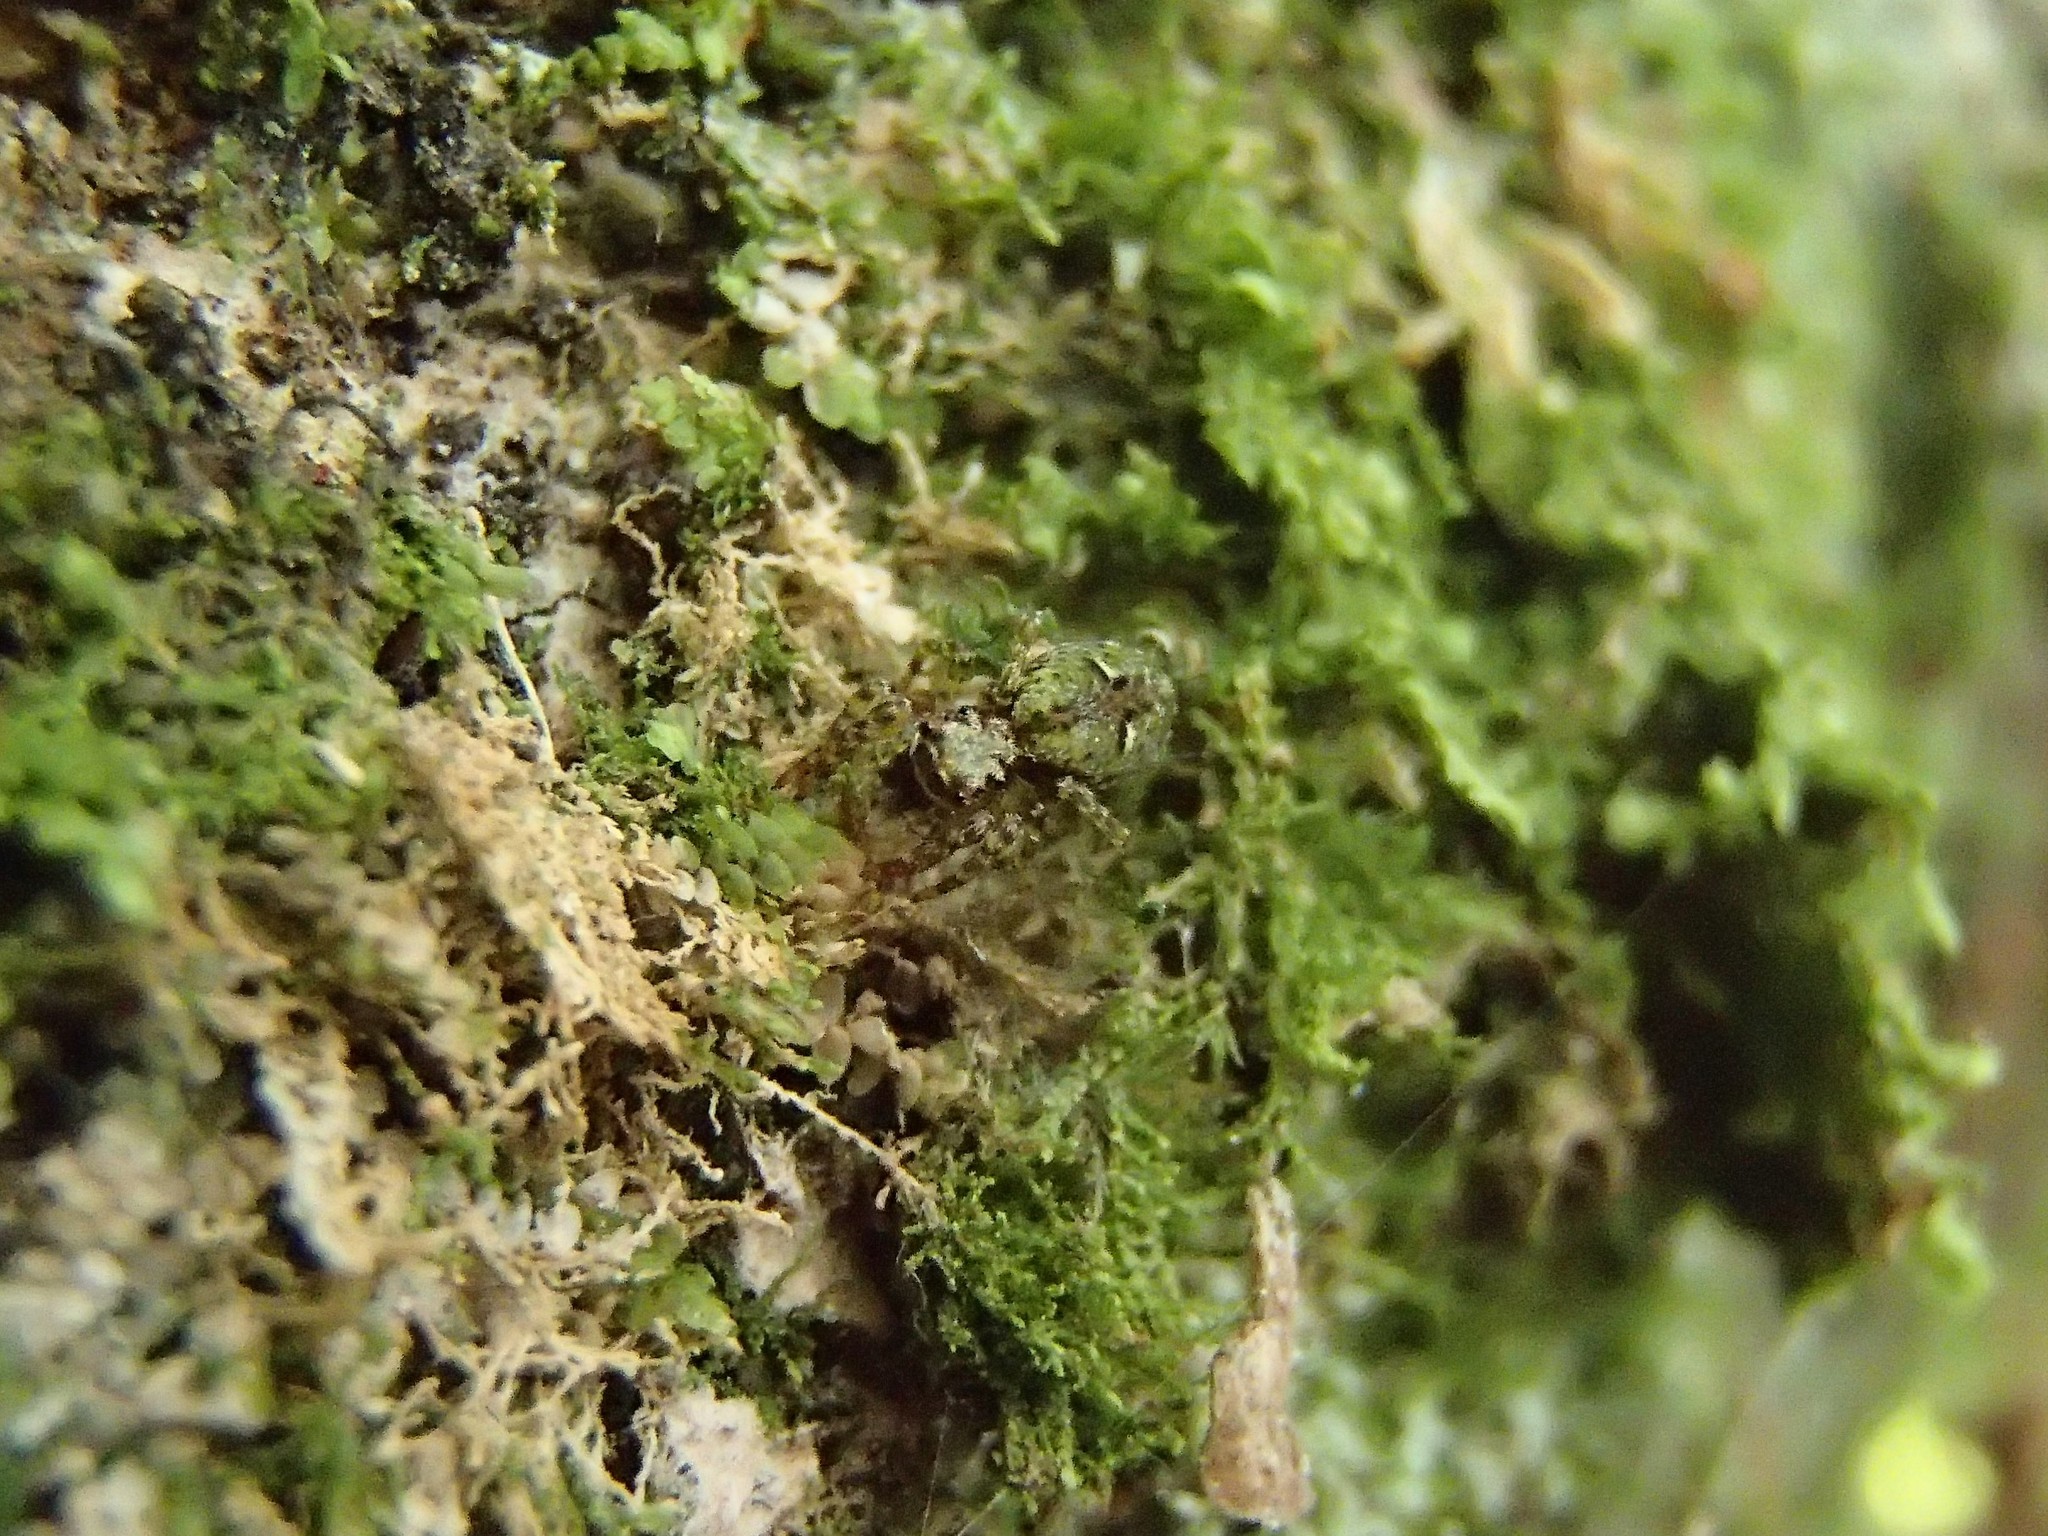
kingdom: Animalia
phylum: Arthropoda
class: Arachnida
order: Araneae
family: Salticidae
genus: Hinewaia
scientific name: Hinewaia embolica
